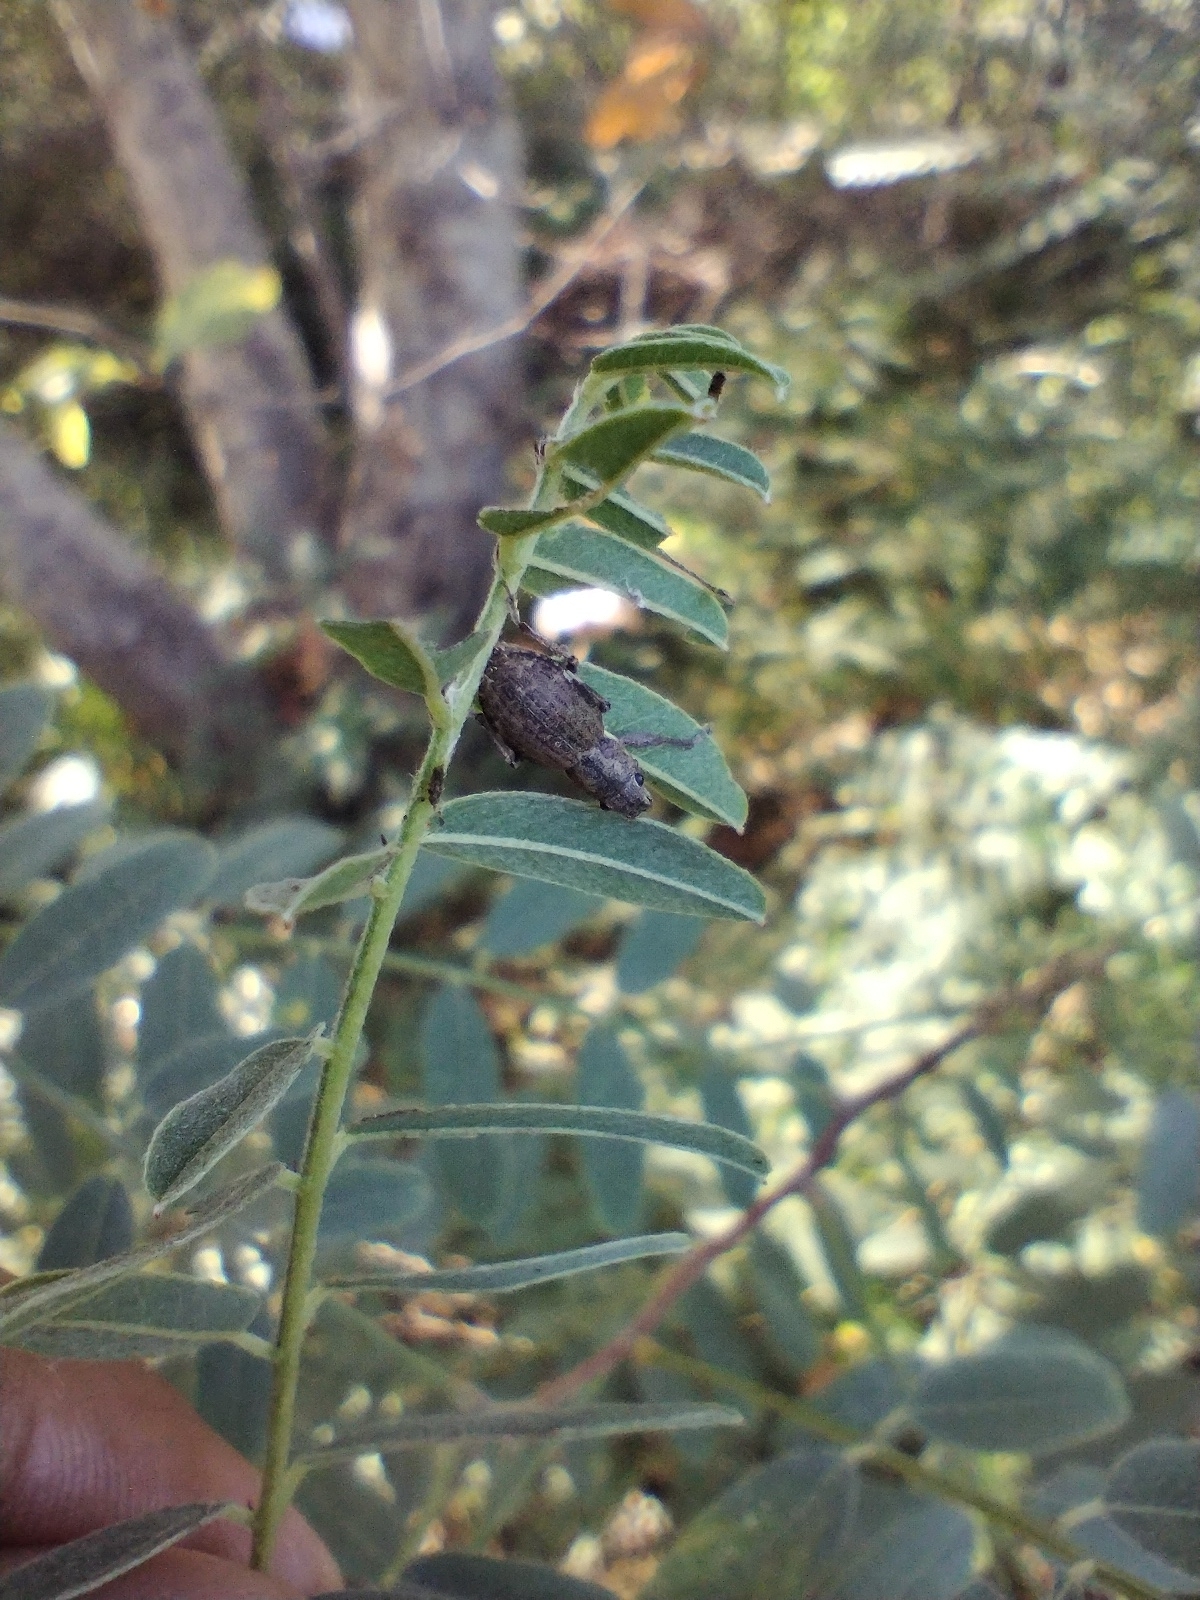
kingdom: Animalia
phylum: Arthropoda
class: Insecta
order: Coleoptera
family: Curculionidae
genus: Naupactus
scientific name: Naupactus cervinus
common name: Fuller rose beetle
